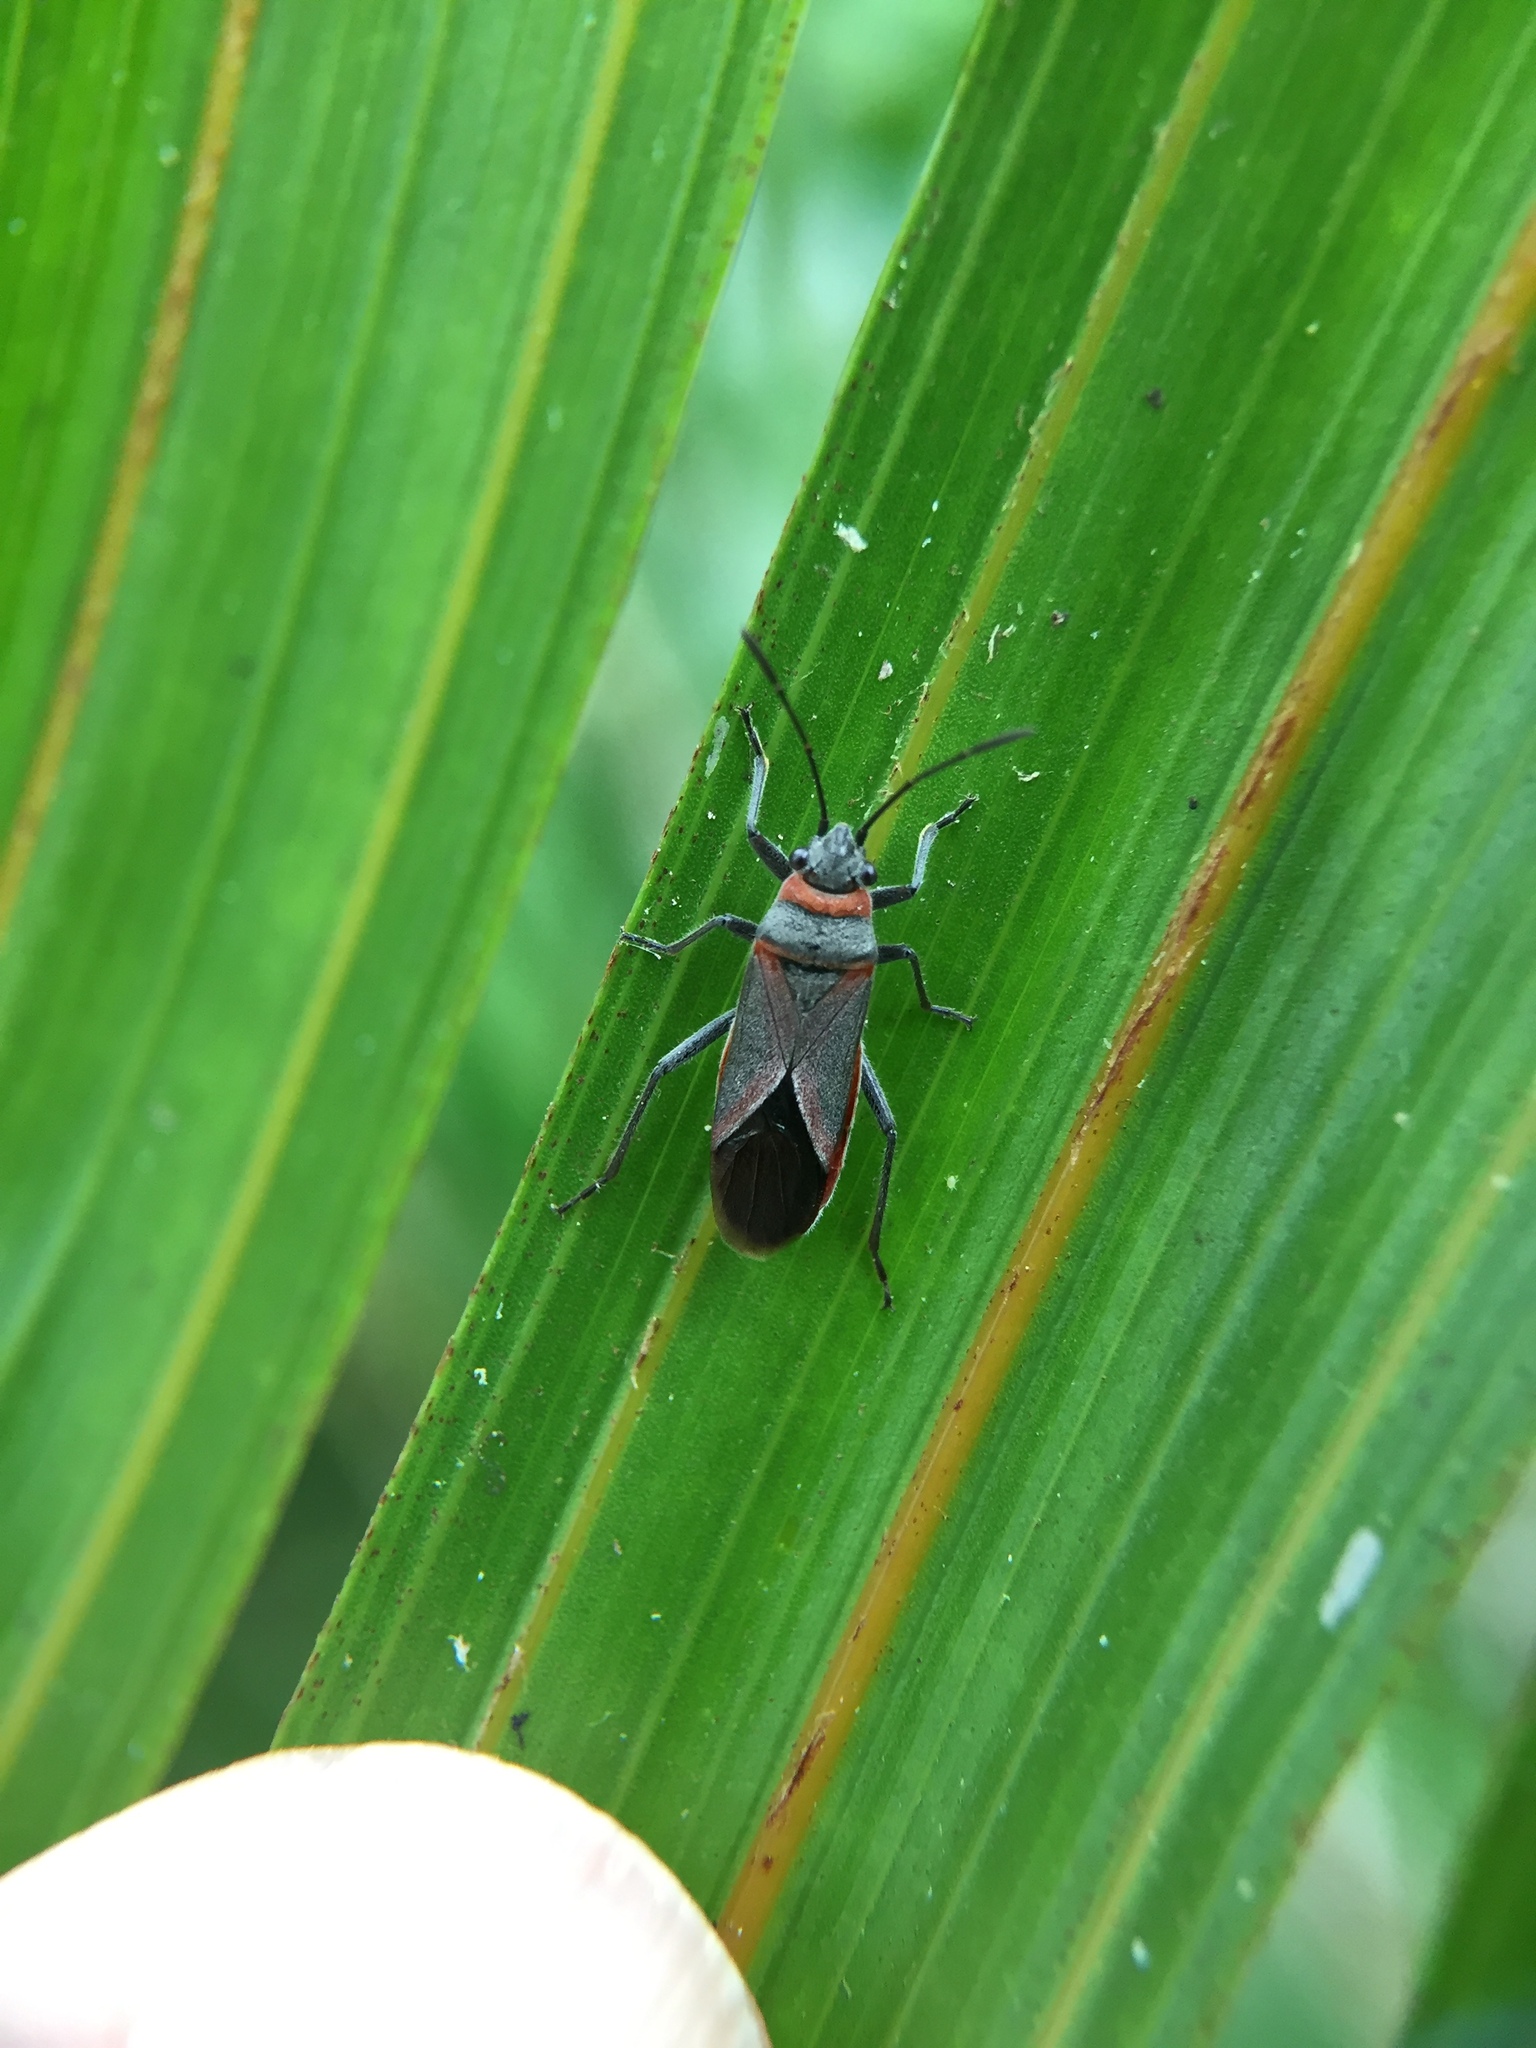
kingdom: Animalia
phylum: Arthropoda
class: Insecta
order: Hemiptera
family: Lygaeidae
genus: Arocatus
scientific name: Arocatus rusticus
